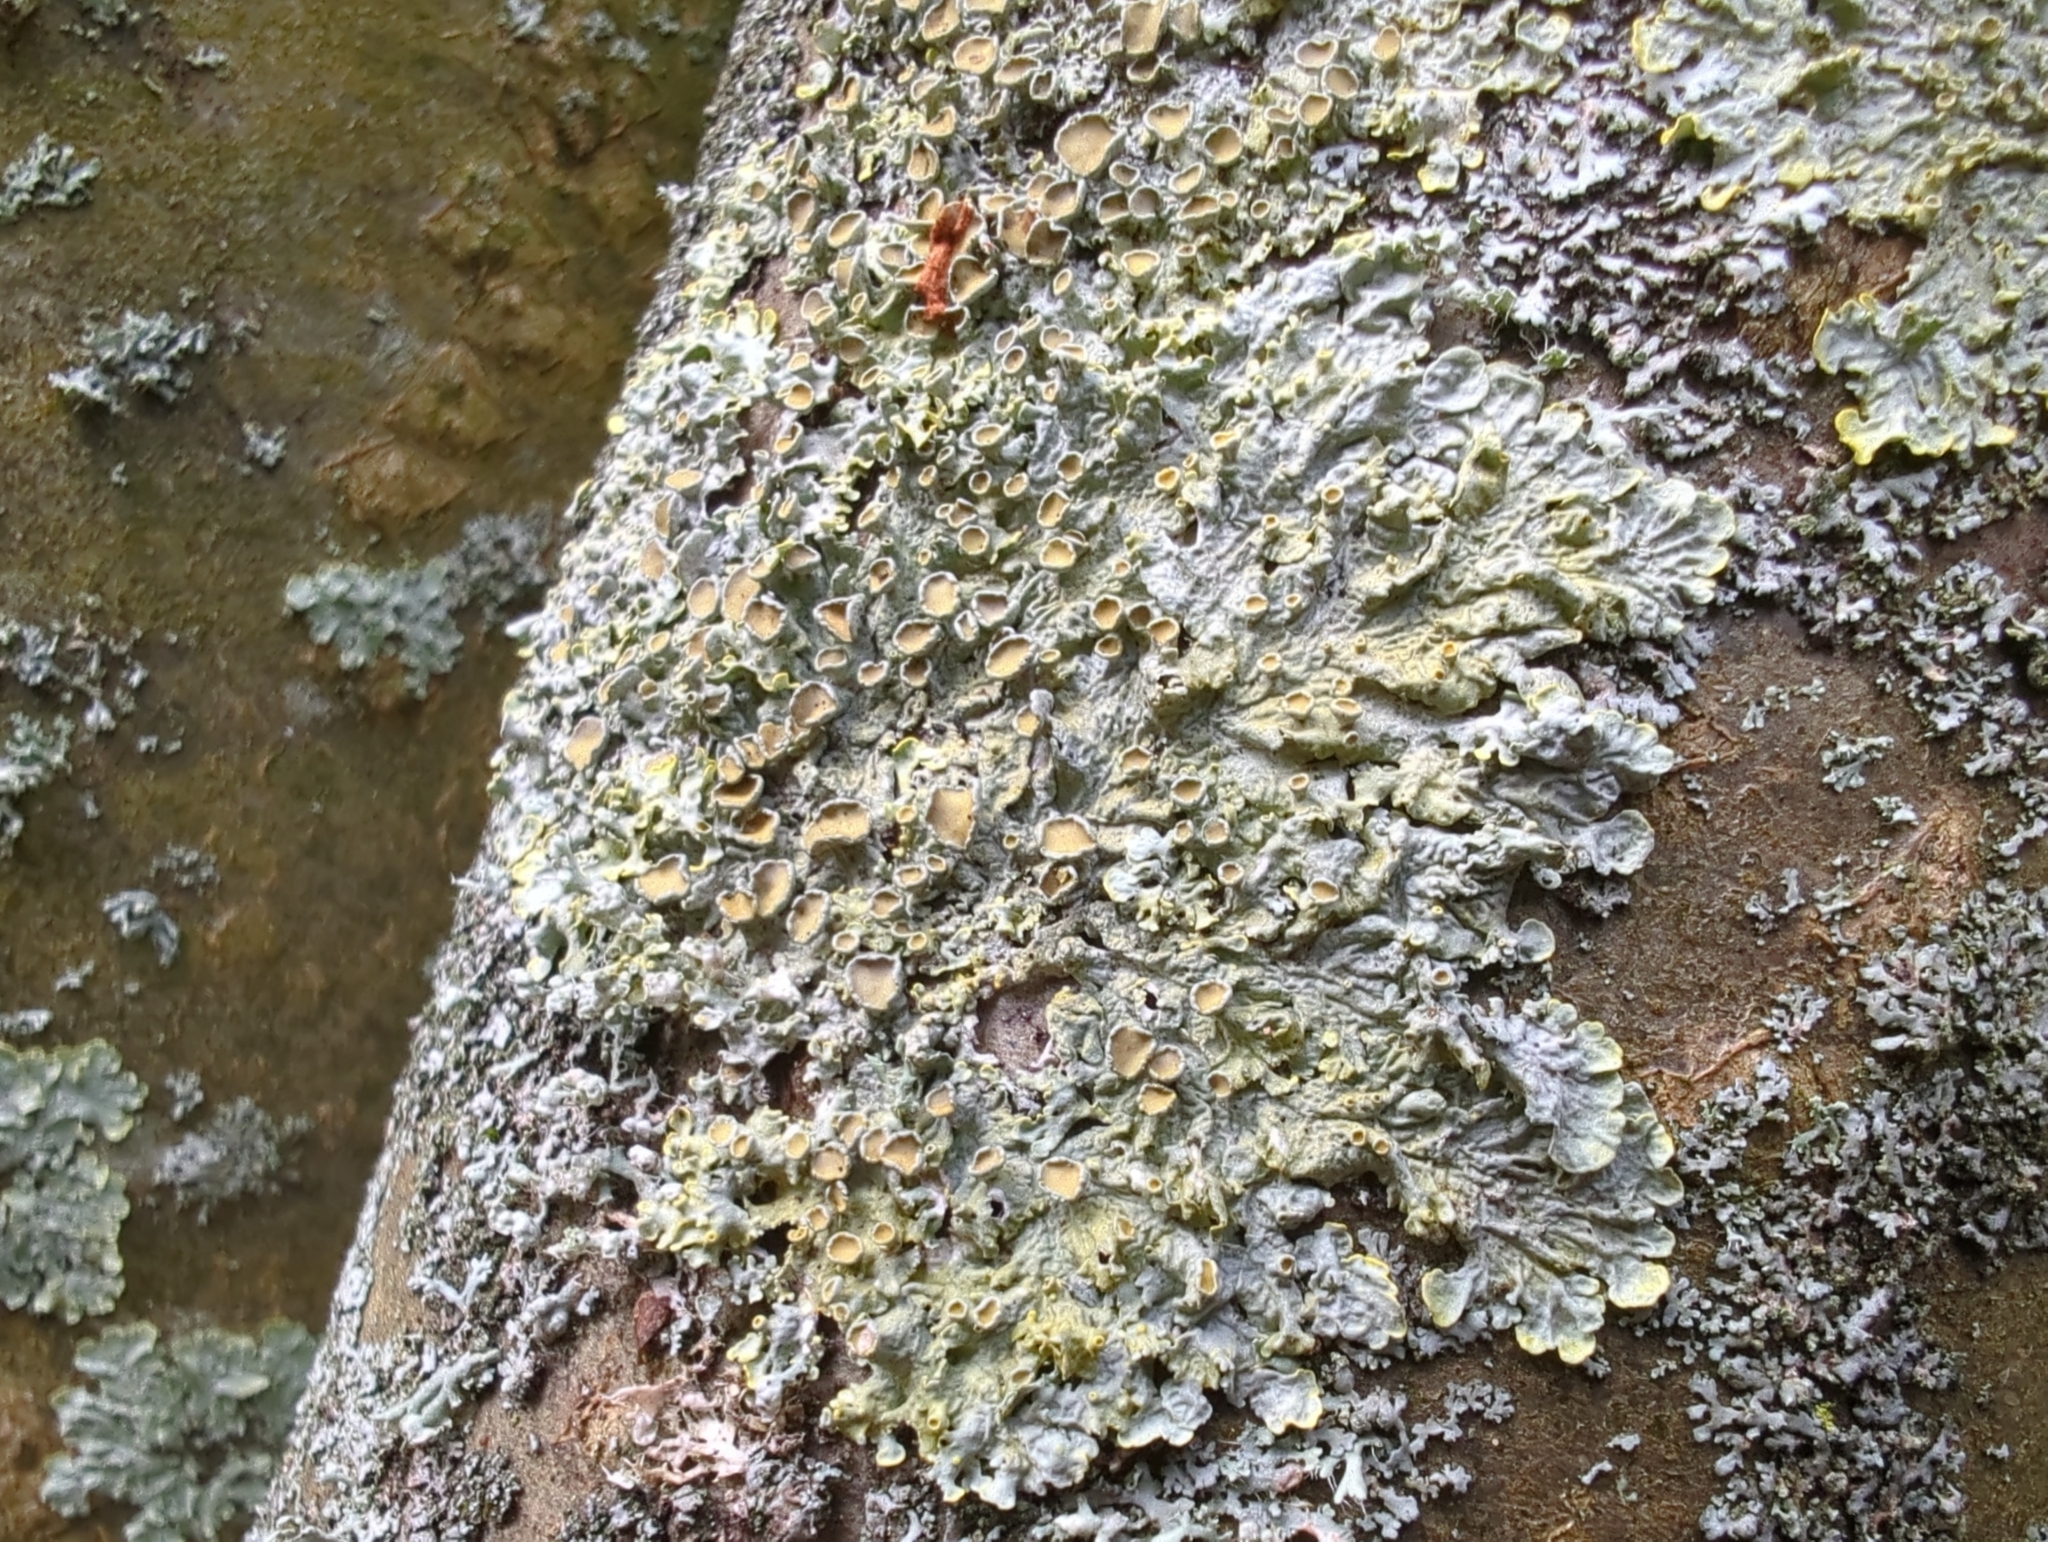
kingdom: Fungi
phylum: Ascomycota
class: Lecanoromycetes
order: Teloschistales
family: Teloschistaceae
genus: Xanthoria
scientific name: Xanthoria parietina
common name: Common orange lichen
